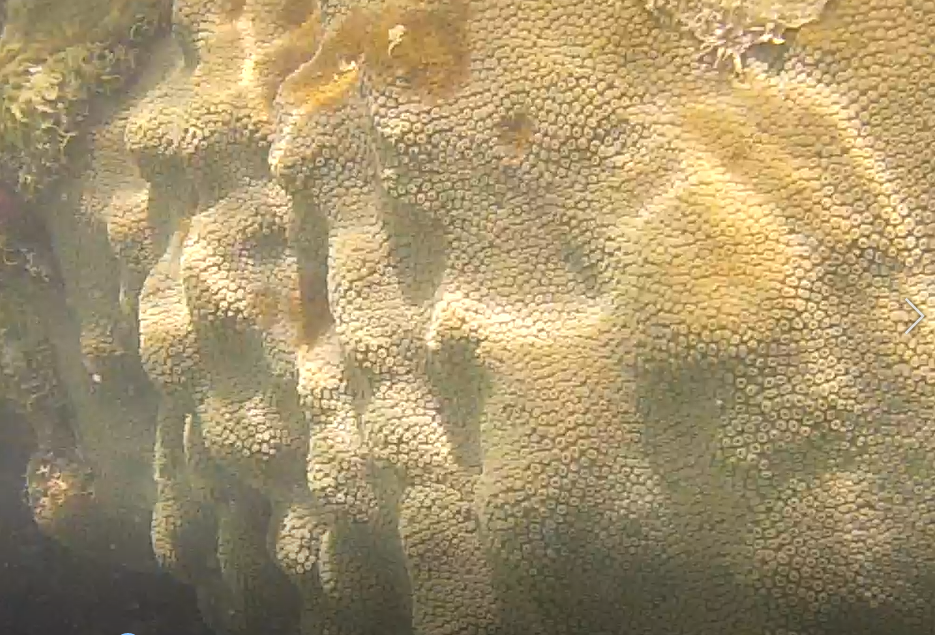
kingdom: Animalia
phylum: Cnidaria
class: Anthozoa
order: Scleractinia
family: Merulinidae
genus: Orbicella
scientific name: Orbicella faveolata
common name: Mountainous star coral
